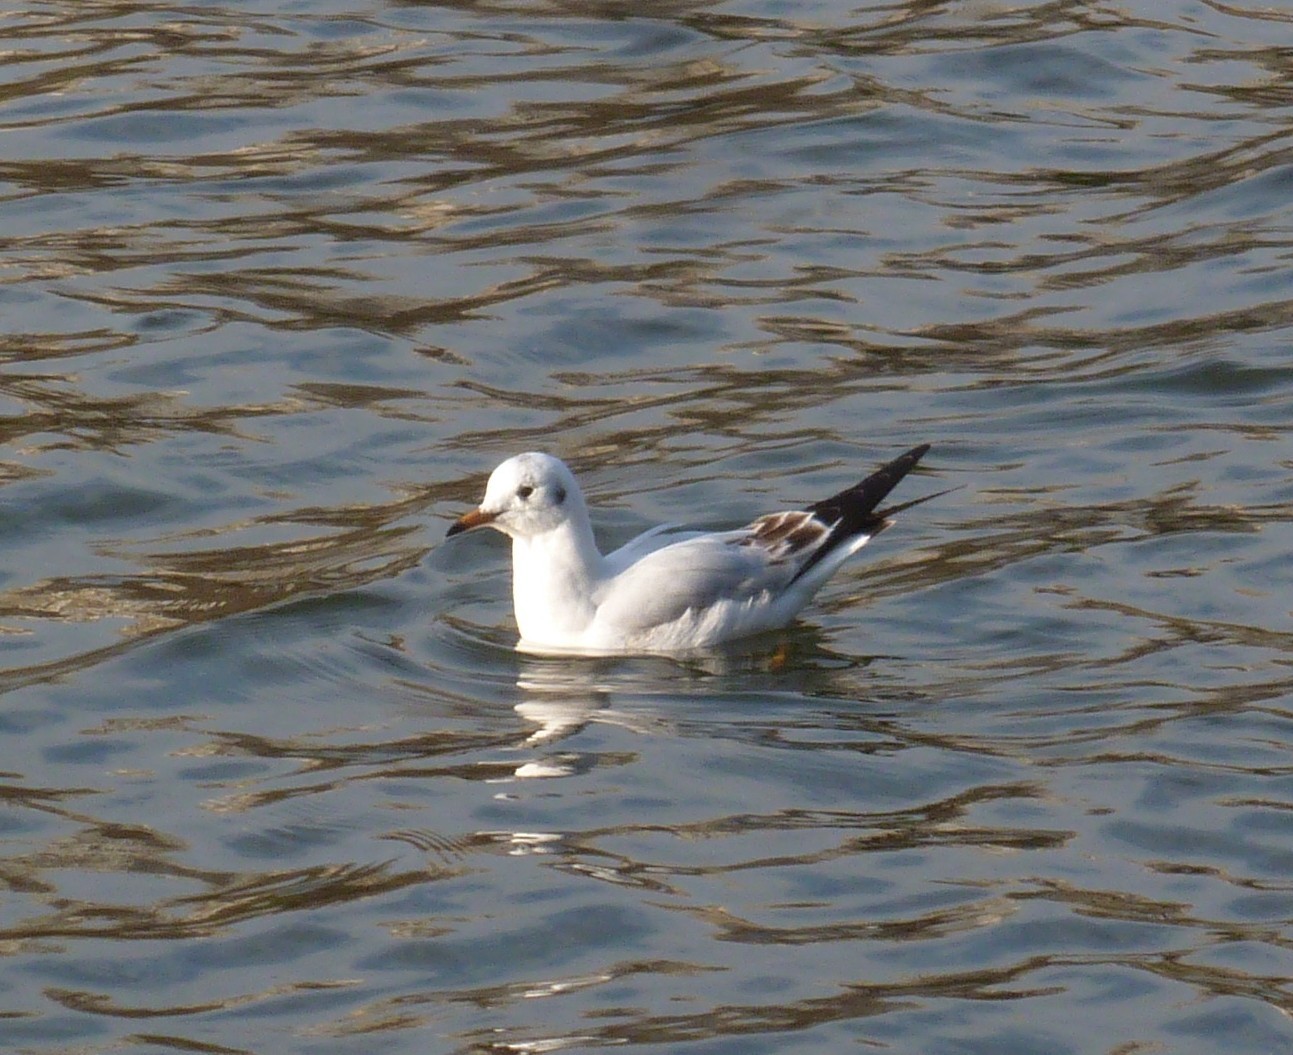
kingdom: Animalia
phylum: Chordata
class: Aves
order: Charadriiformes
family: Laridae
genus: Chroicocephalus
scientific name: Chroicocephalus ridibundus
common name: Black-headed gull
